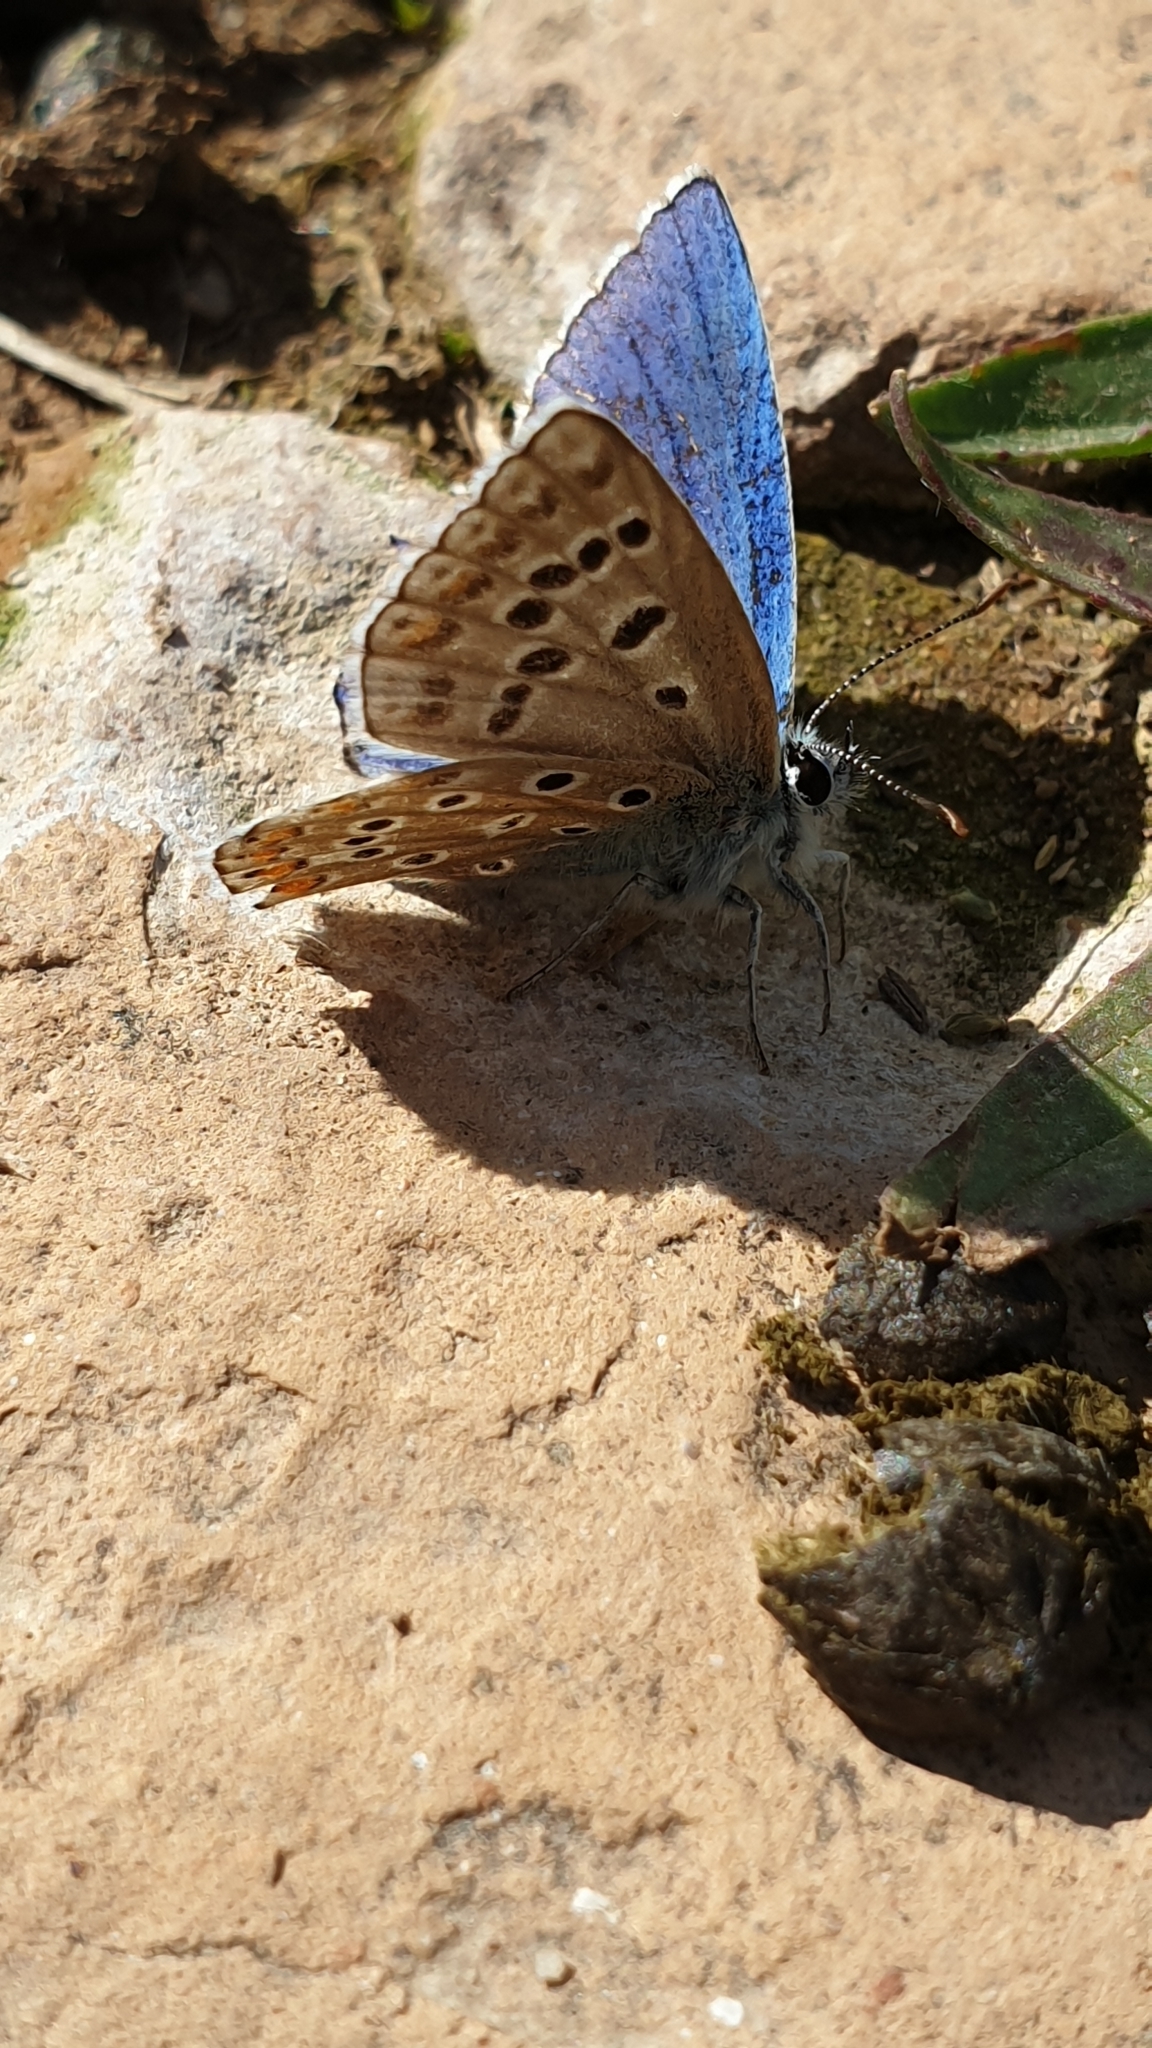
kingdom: Animalia
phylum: Arthropoda
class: Insecta
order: Lepidoptera
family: Lycaenidae
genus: Lysandra
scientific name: Lysandra bellargus
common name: Adonis blue
